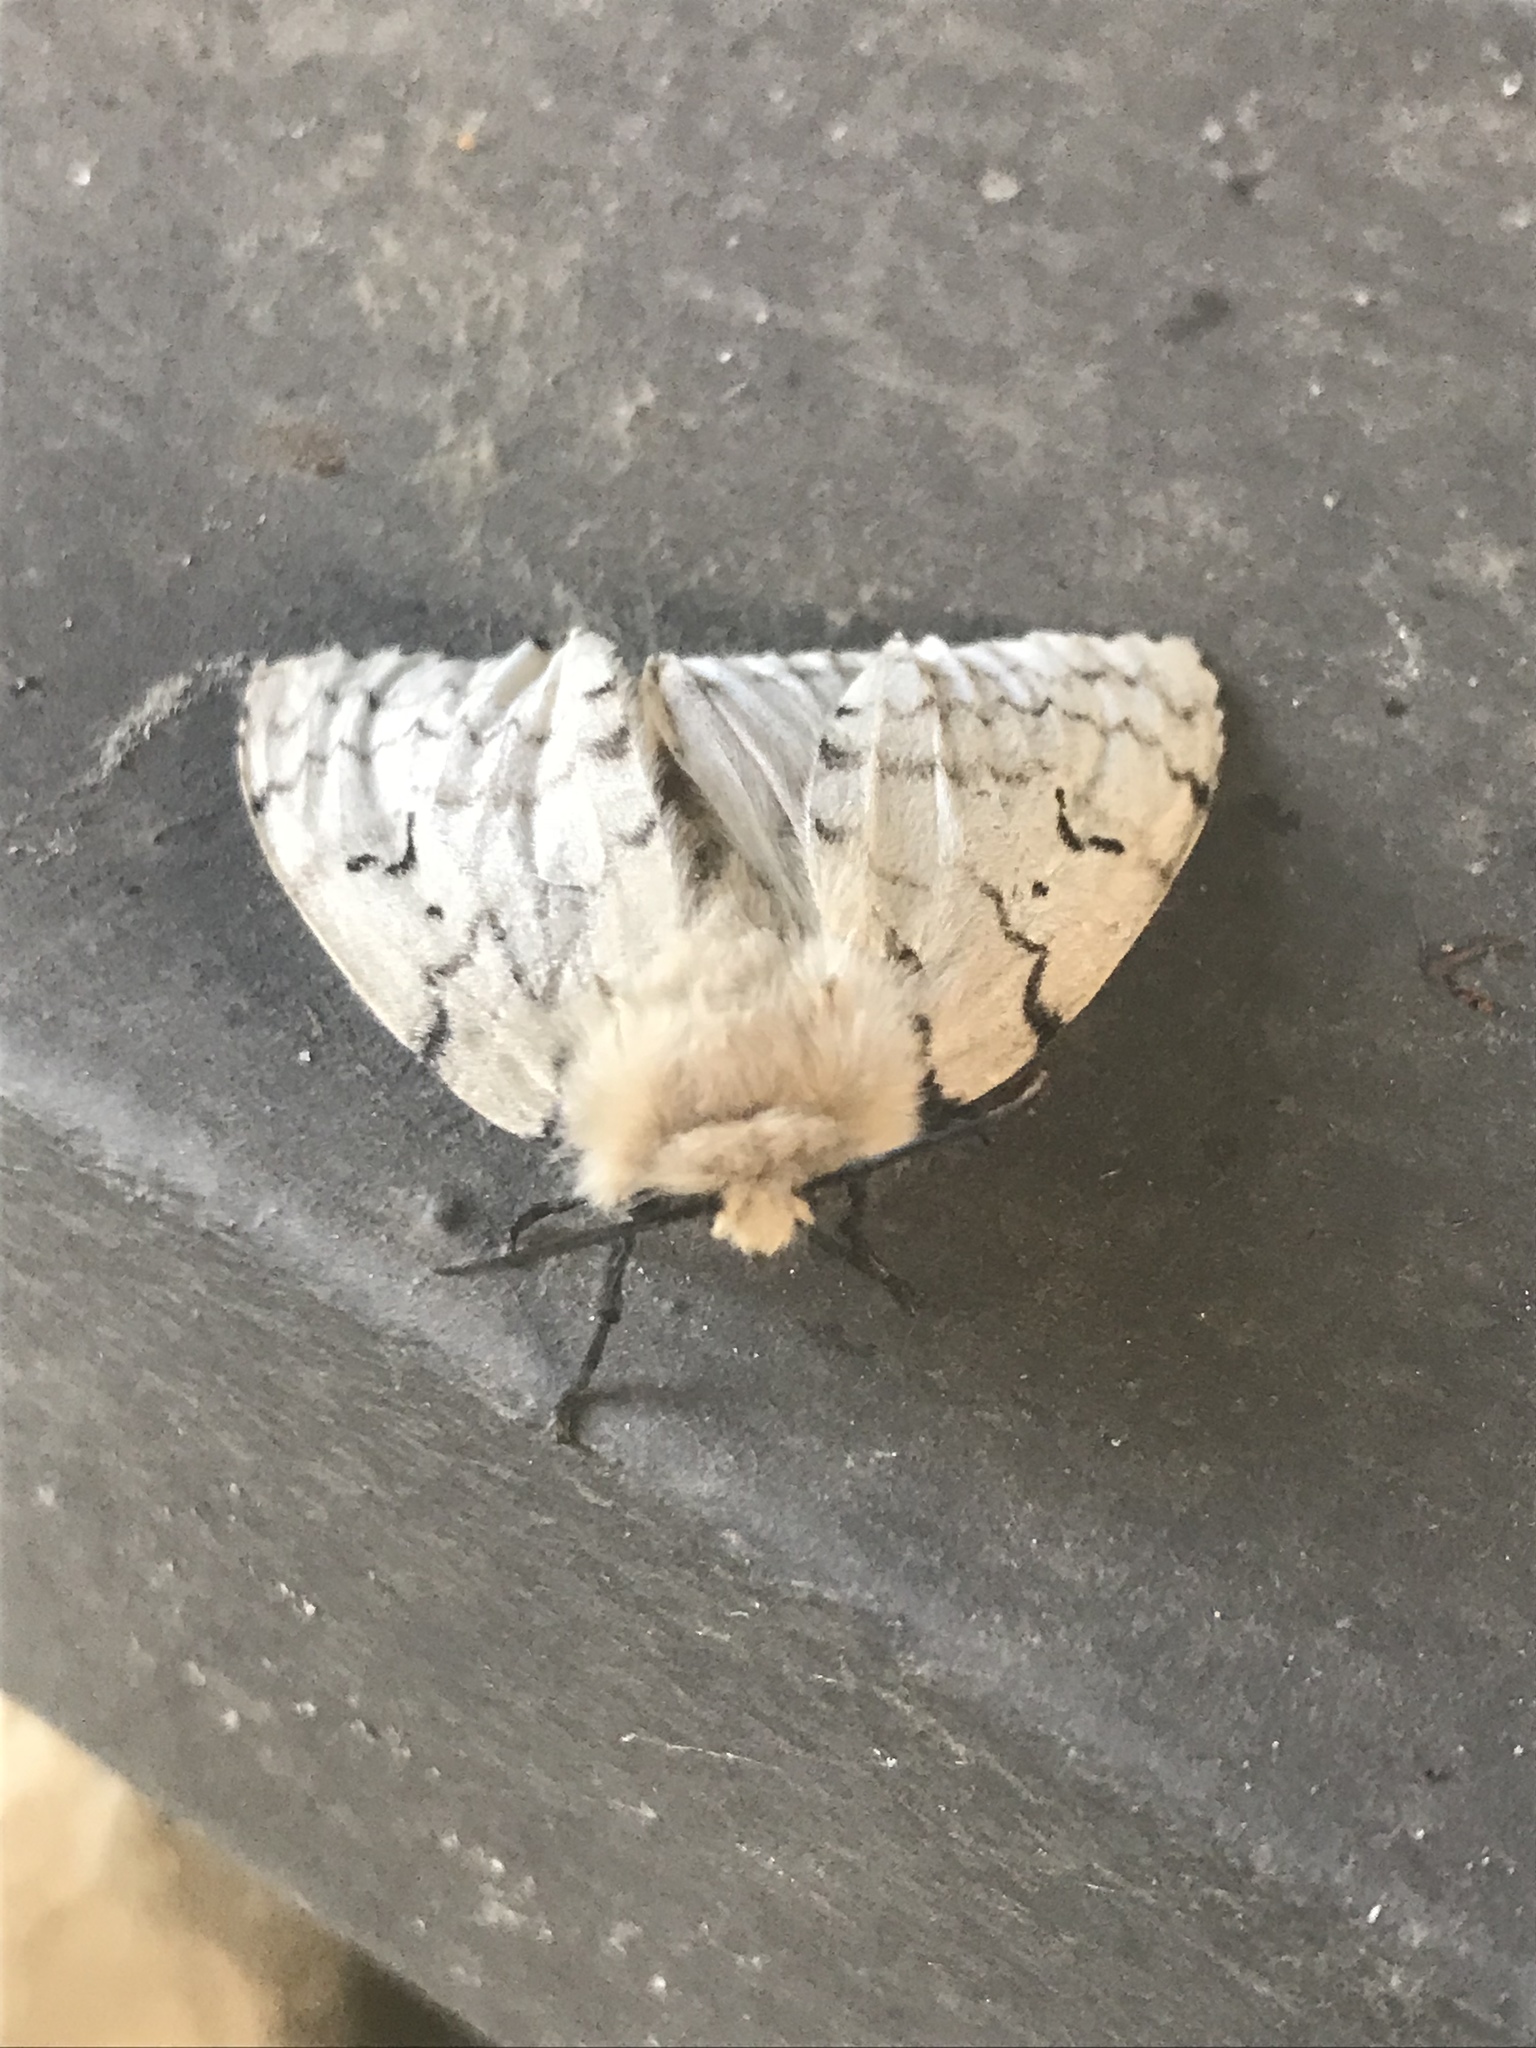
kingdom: Animalia
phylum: Arthropoda
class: Insecta
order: Lepidoptera
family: Erebidae
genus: Lymantria
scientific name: Lymantria dispar
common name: Gypsy moth
